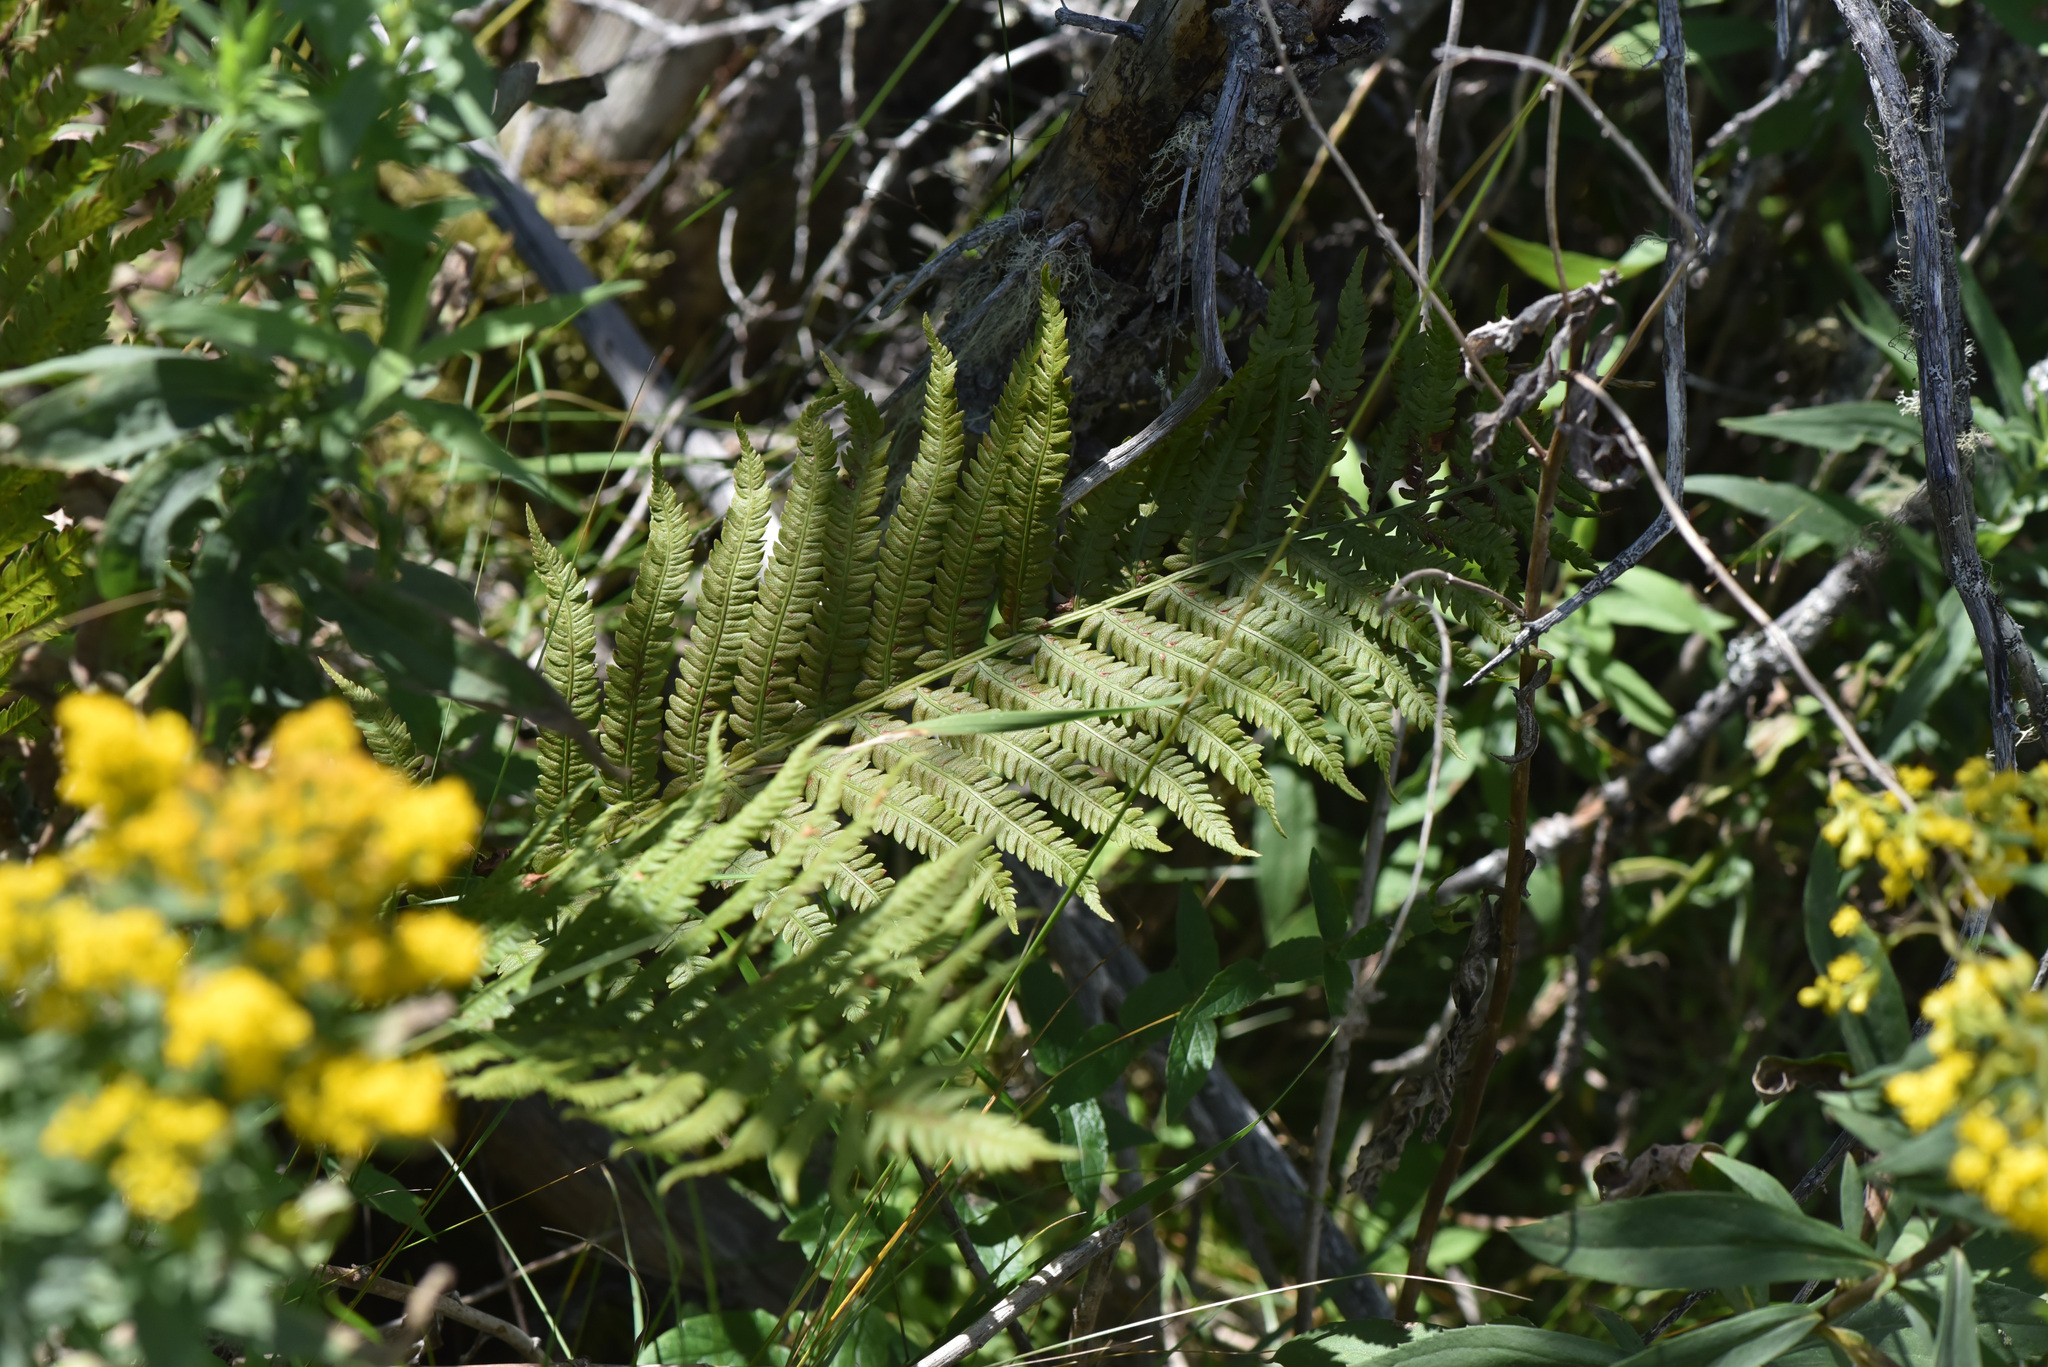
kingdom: Plantae
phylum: Tracheophyta
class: Polypodiopsida
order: Polypodiales
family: Onocleaceae
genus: Matteuccia
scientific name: Matteuccia struthiopteris
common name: Ostrich fern
